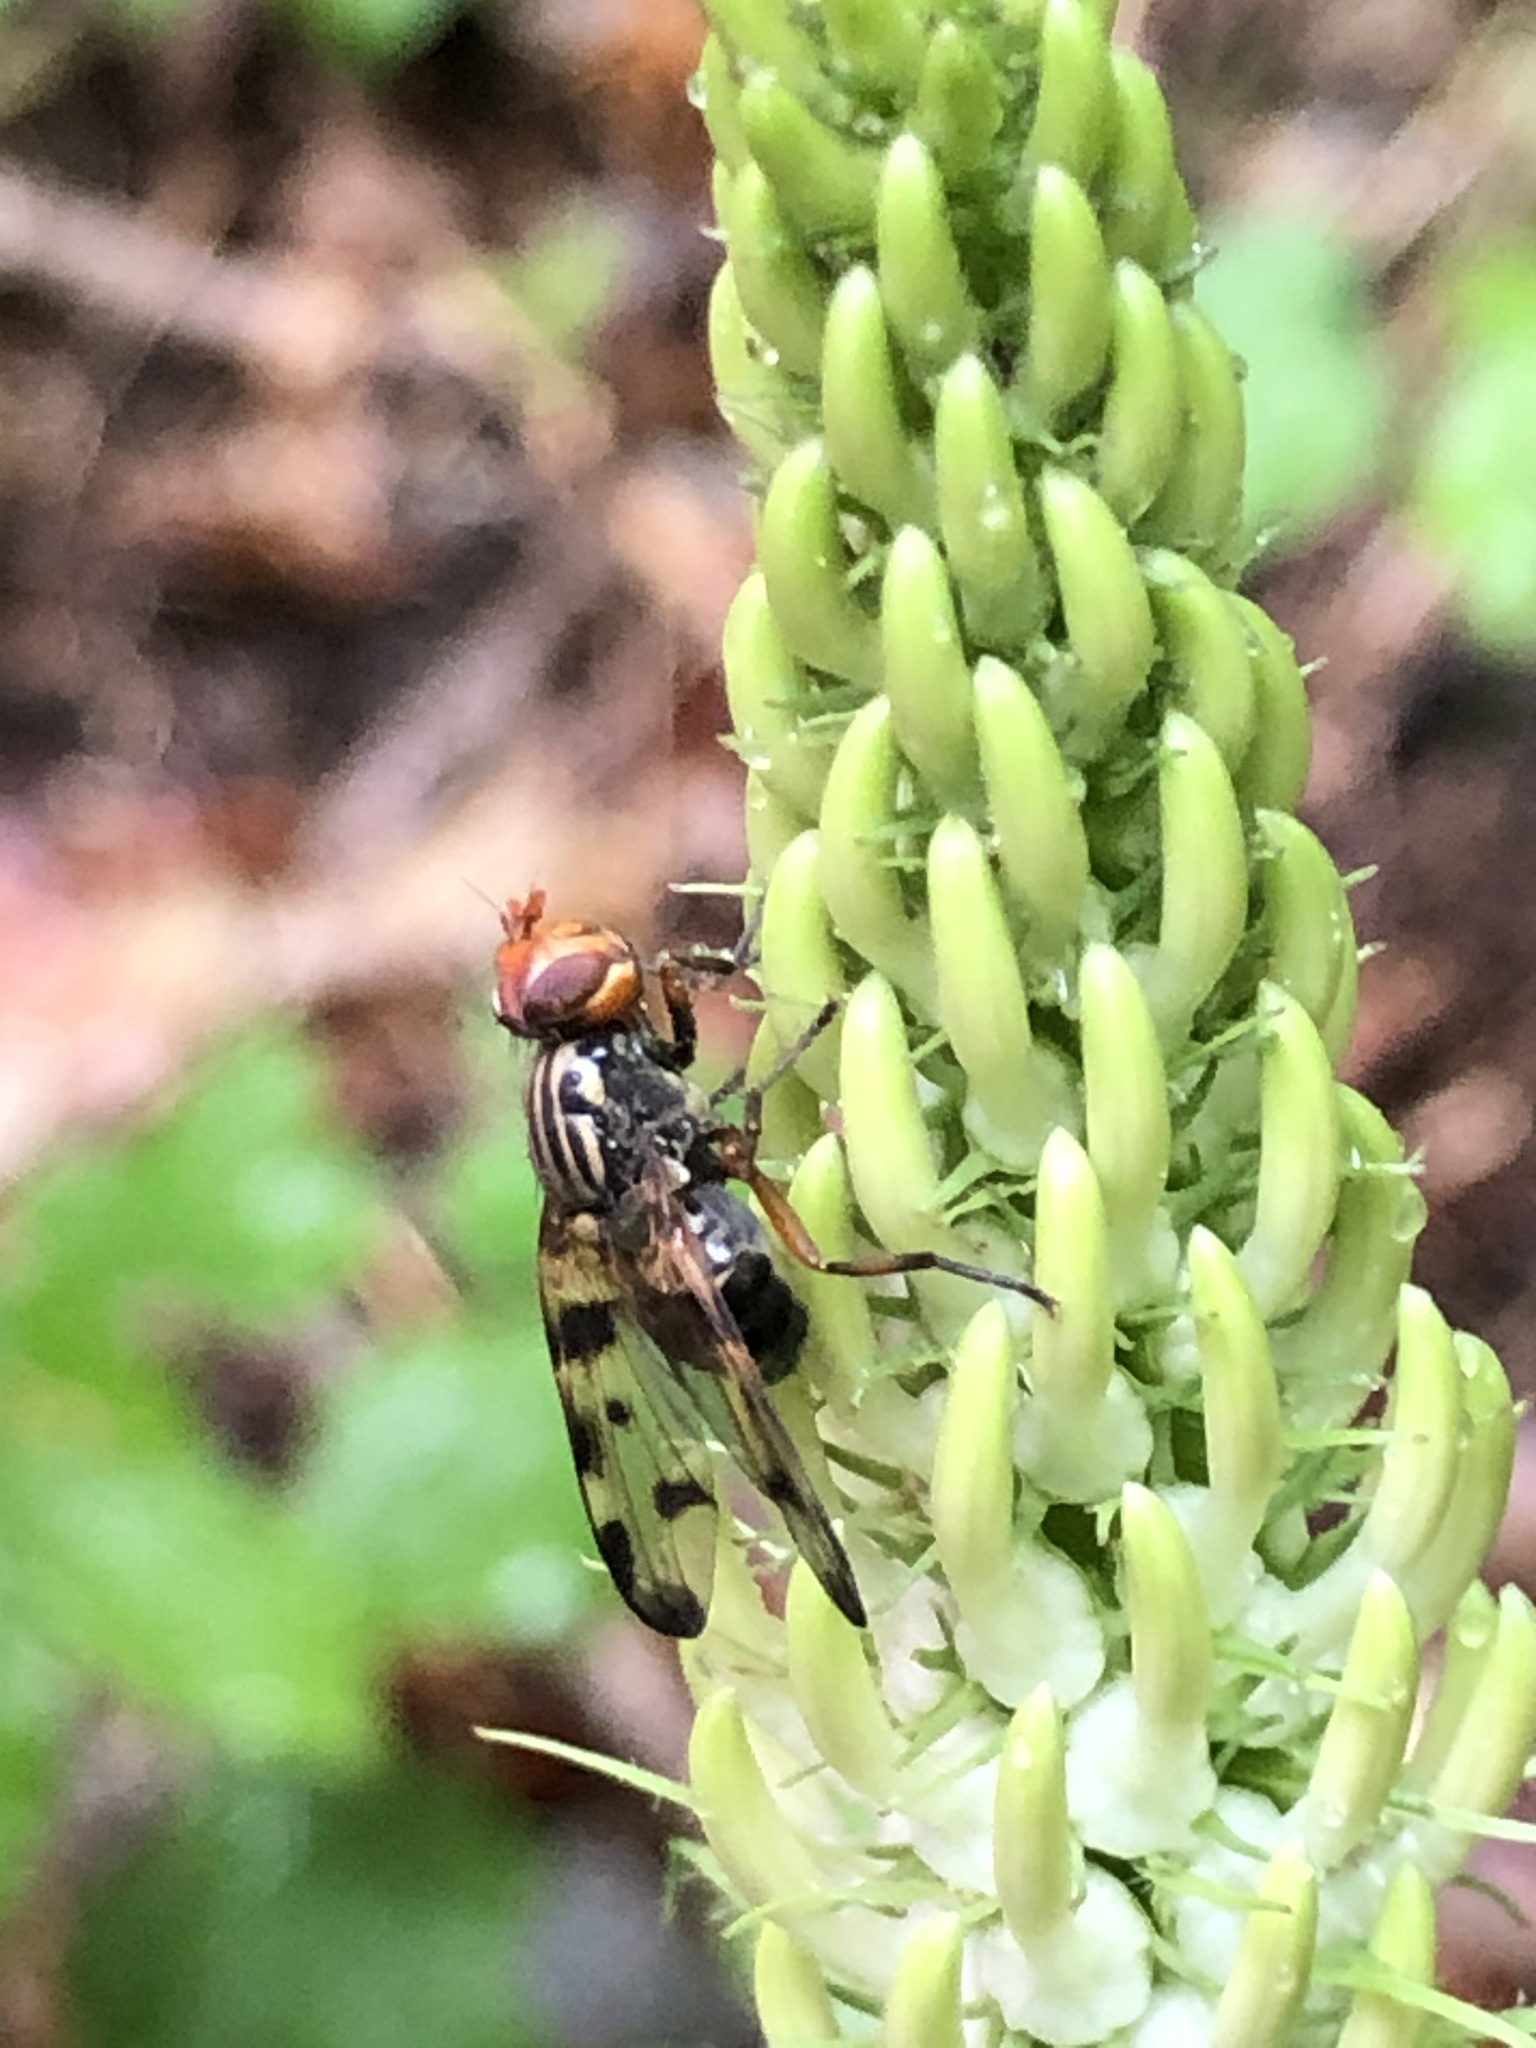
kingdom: Animalia
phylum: Arthropoda
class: Insecta
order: Diptera
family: Ulidiidae
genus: Otites
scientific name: Otites porcus
